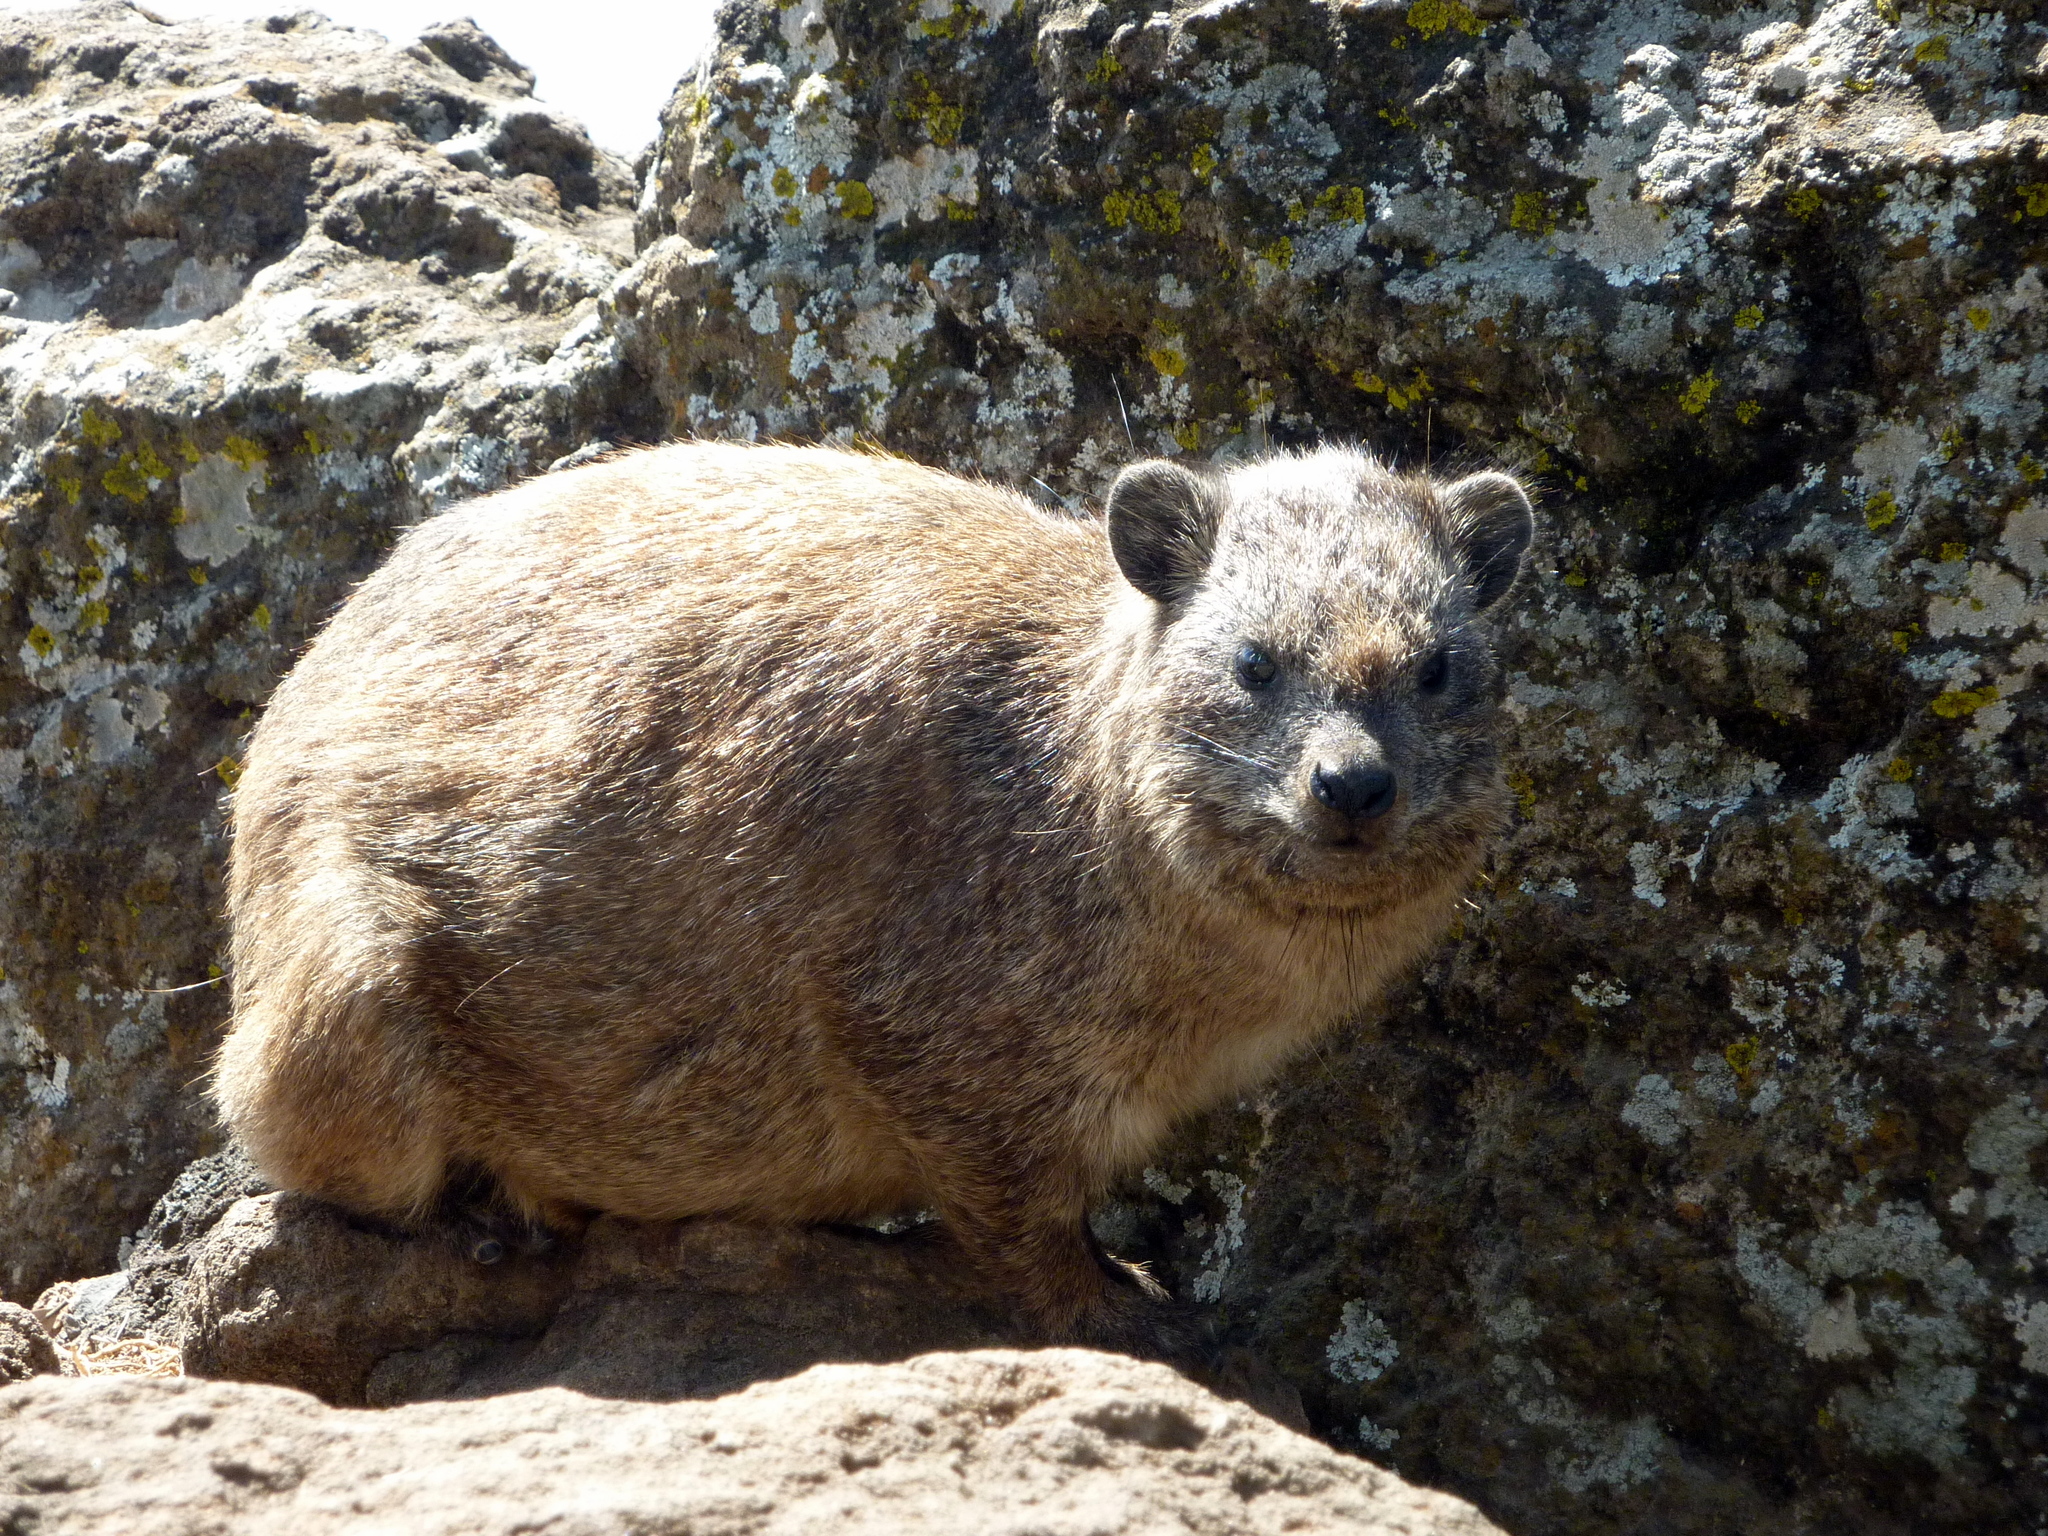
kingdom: Animalia
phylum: Chordata
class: Mammalia
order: Hyracoidea
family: Procaviidae
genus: Procavia
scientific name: Procavia capensis
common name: Rock hyrax
